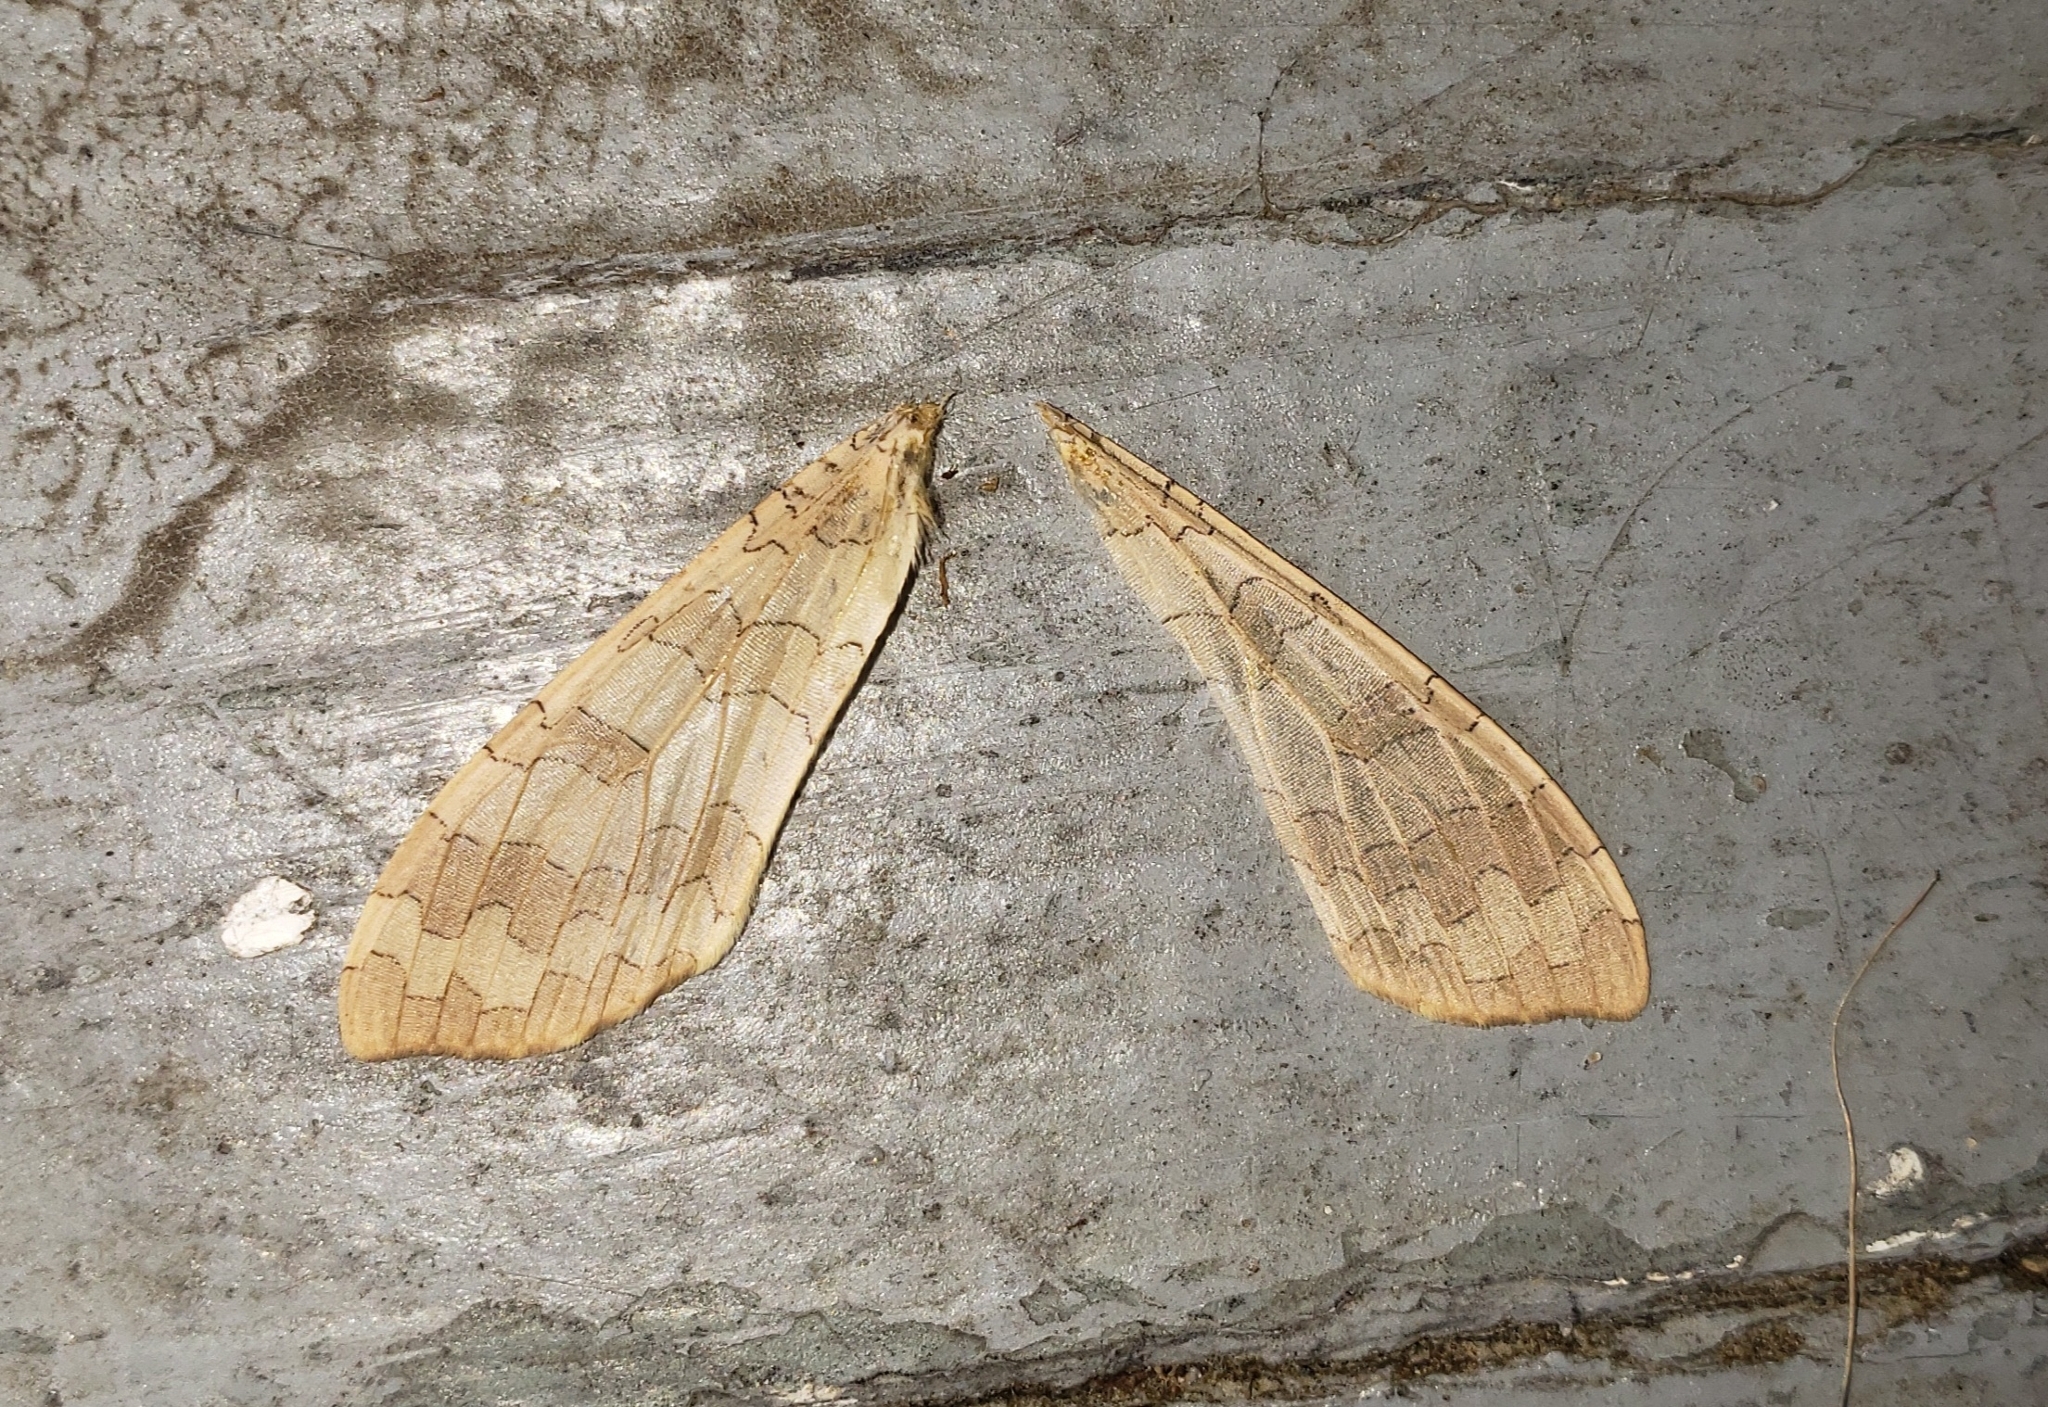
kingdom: Animalia
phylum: Arthropoda
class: Insecta
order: Lepidoptera
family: Erebidae
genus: Halysidota
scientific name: Halysidota
